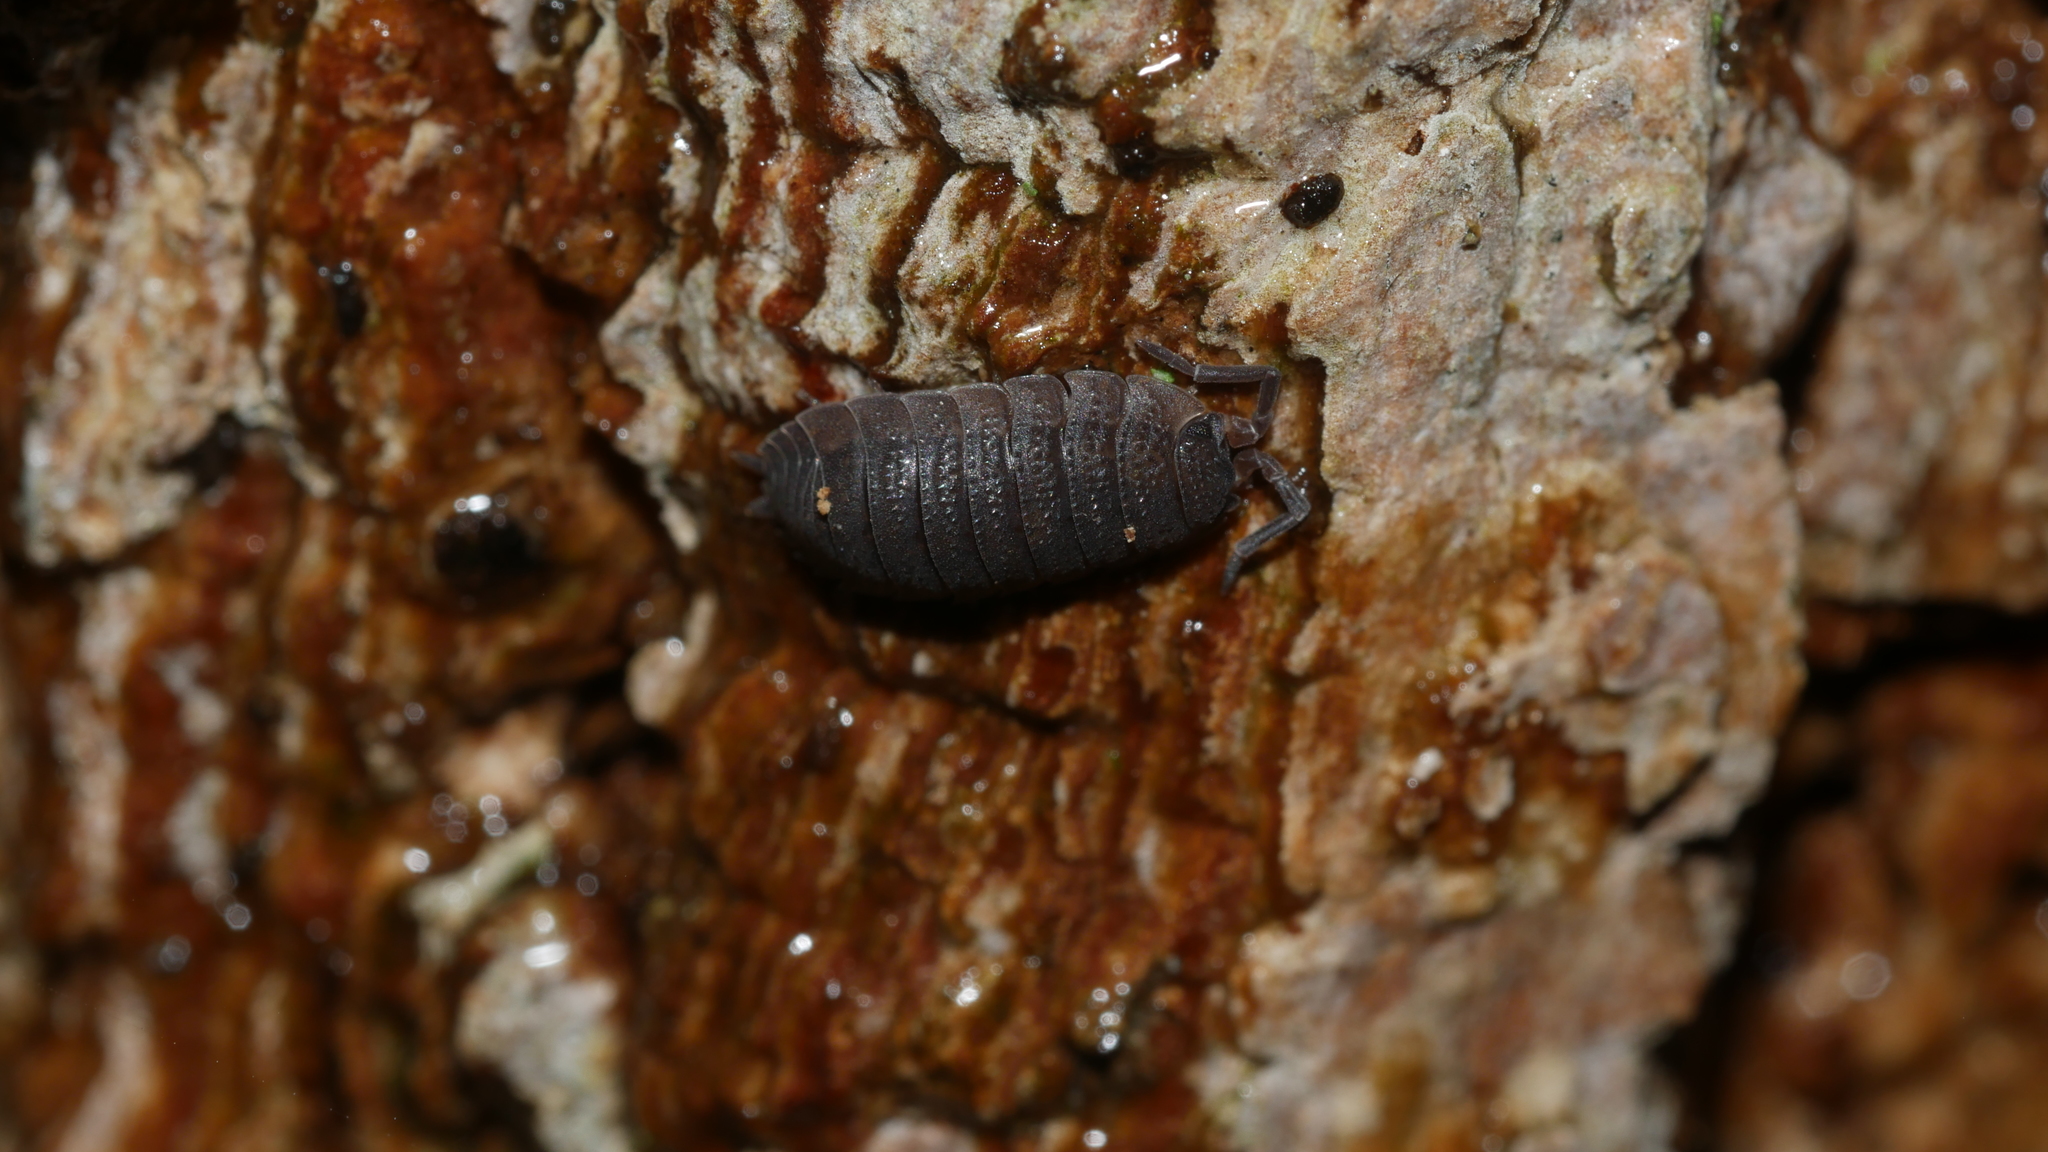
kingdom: Animalia
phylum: Arthropoda
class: Malacostraca
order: Isopoda
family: Porcellionidae
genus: Porcellio
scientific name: Porcellio scaber
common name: Common rough woodlouse
